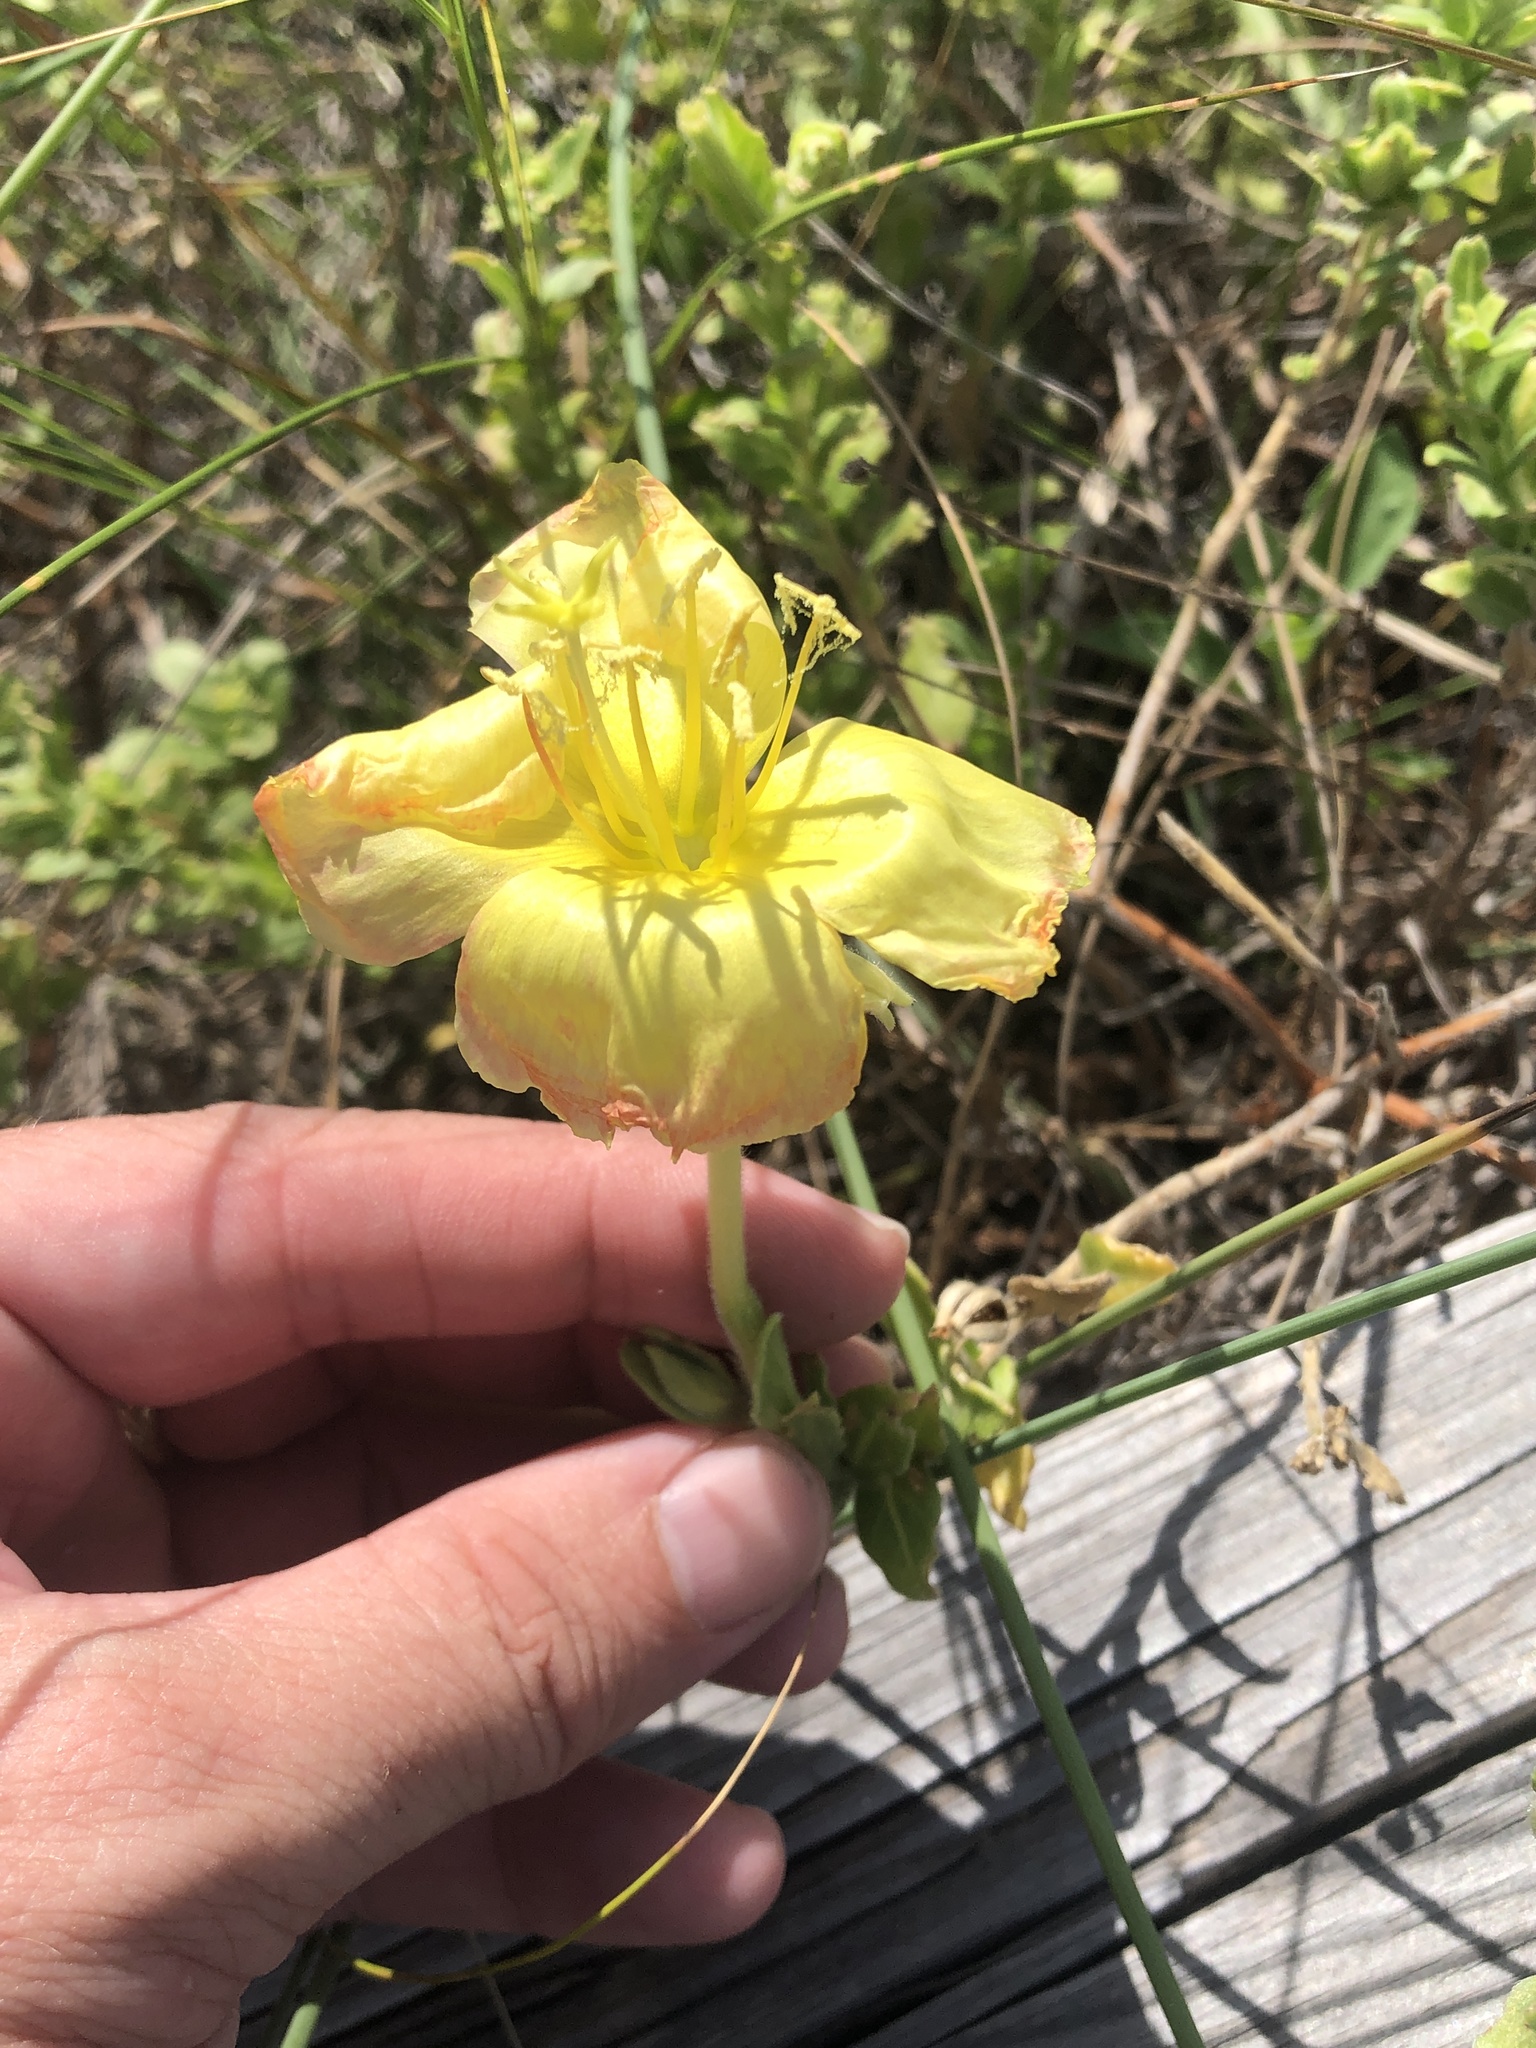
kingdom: Plantae
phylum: Tracheophyta
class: Magnoliopsida
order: Myrtales
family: Onagraceae
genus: Oenothera
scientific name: Oenothera drummondii
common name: Beach evening-primrose
